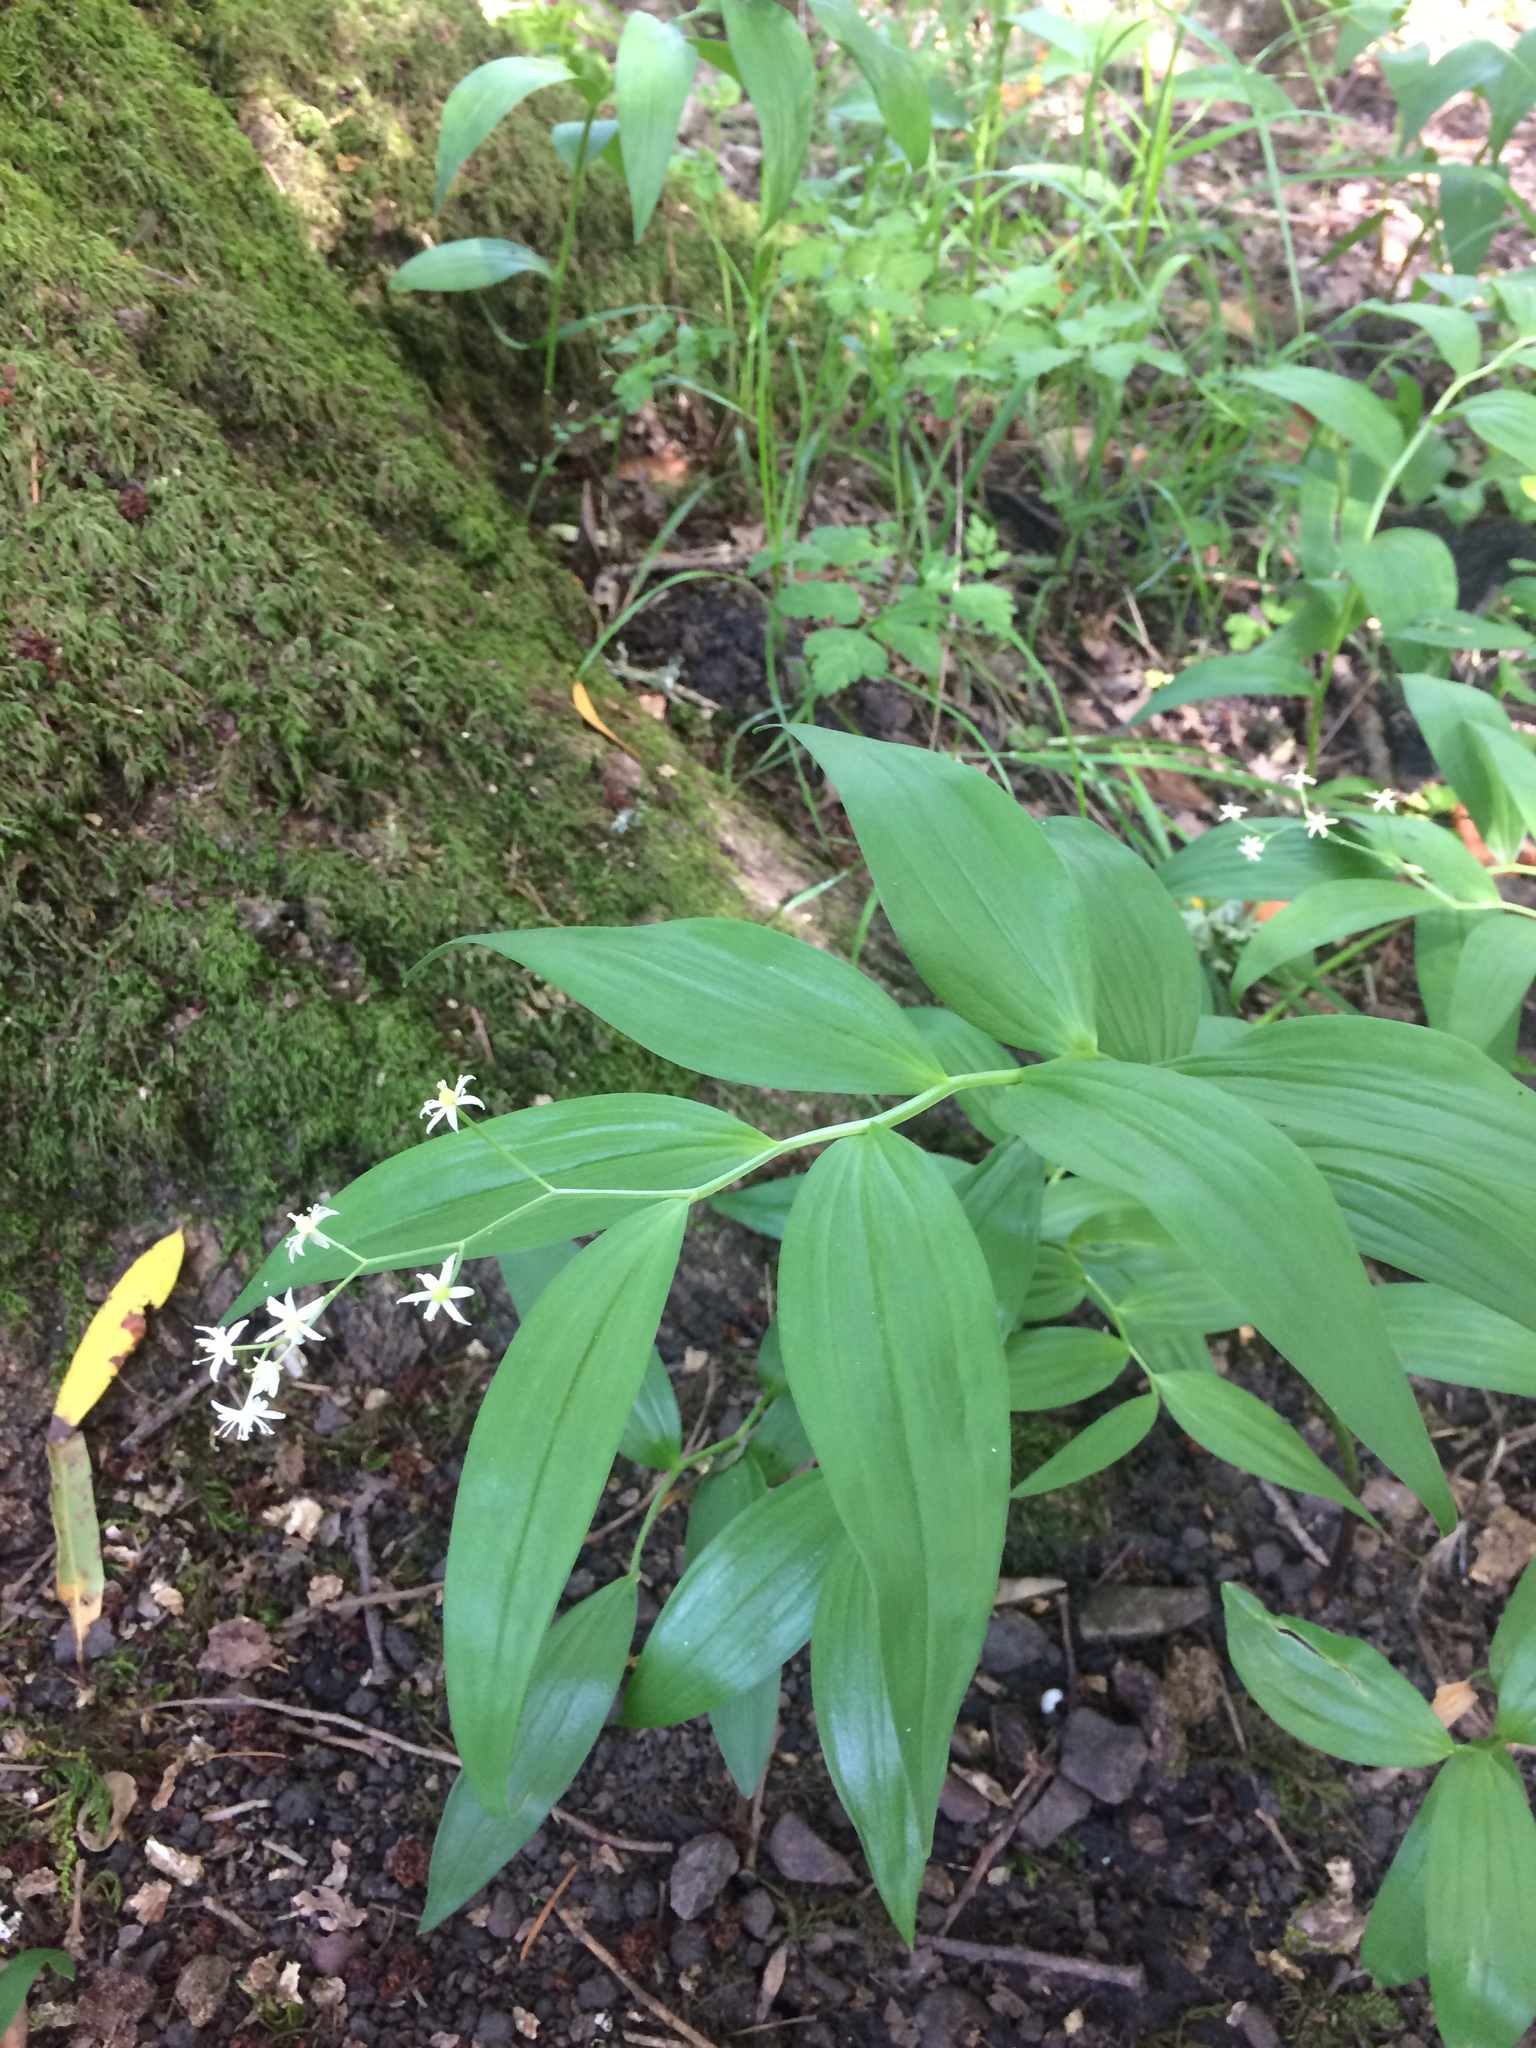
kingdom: Plantae
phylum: Tracheophyta
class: Liliopsida
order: Asparagales
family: Asparagaceae
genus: Maianthemum
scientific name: Maianthemum stellatum
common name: Little false solomon's seal
